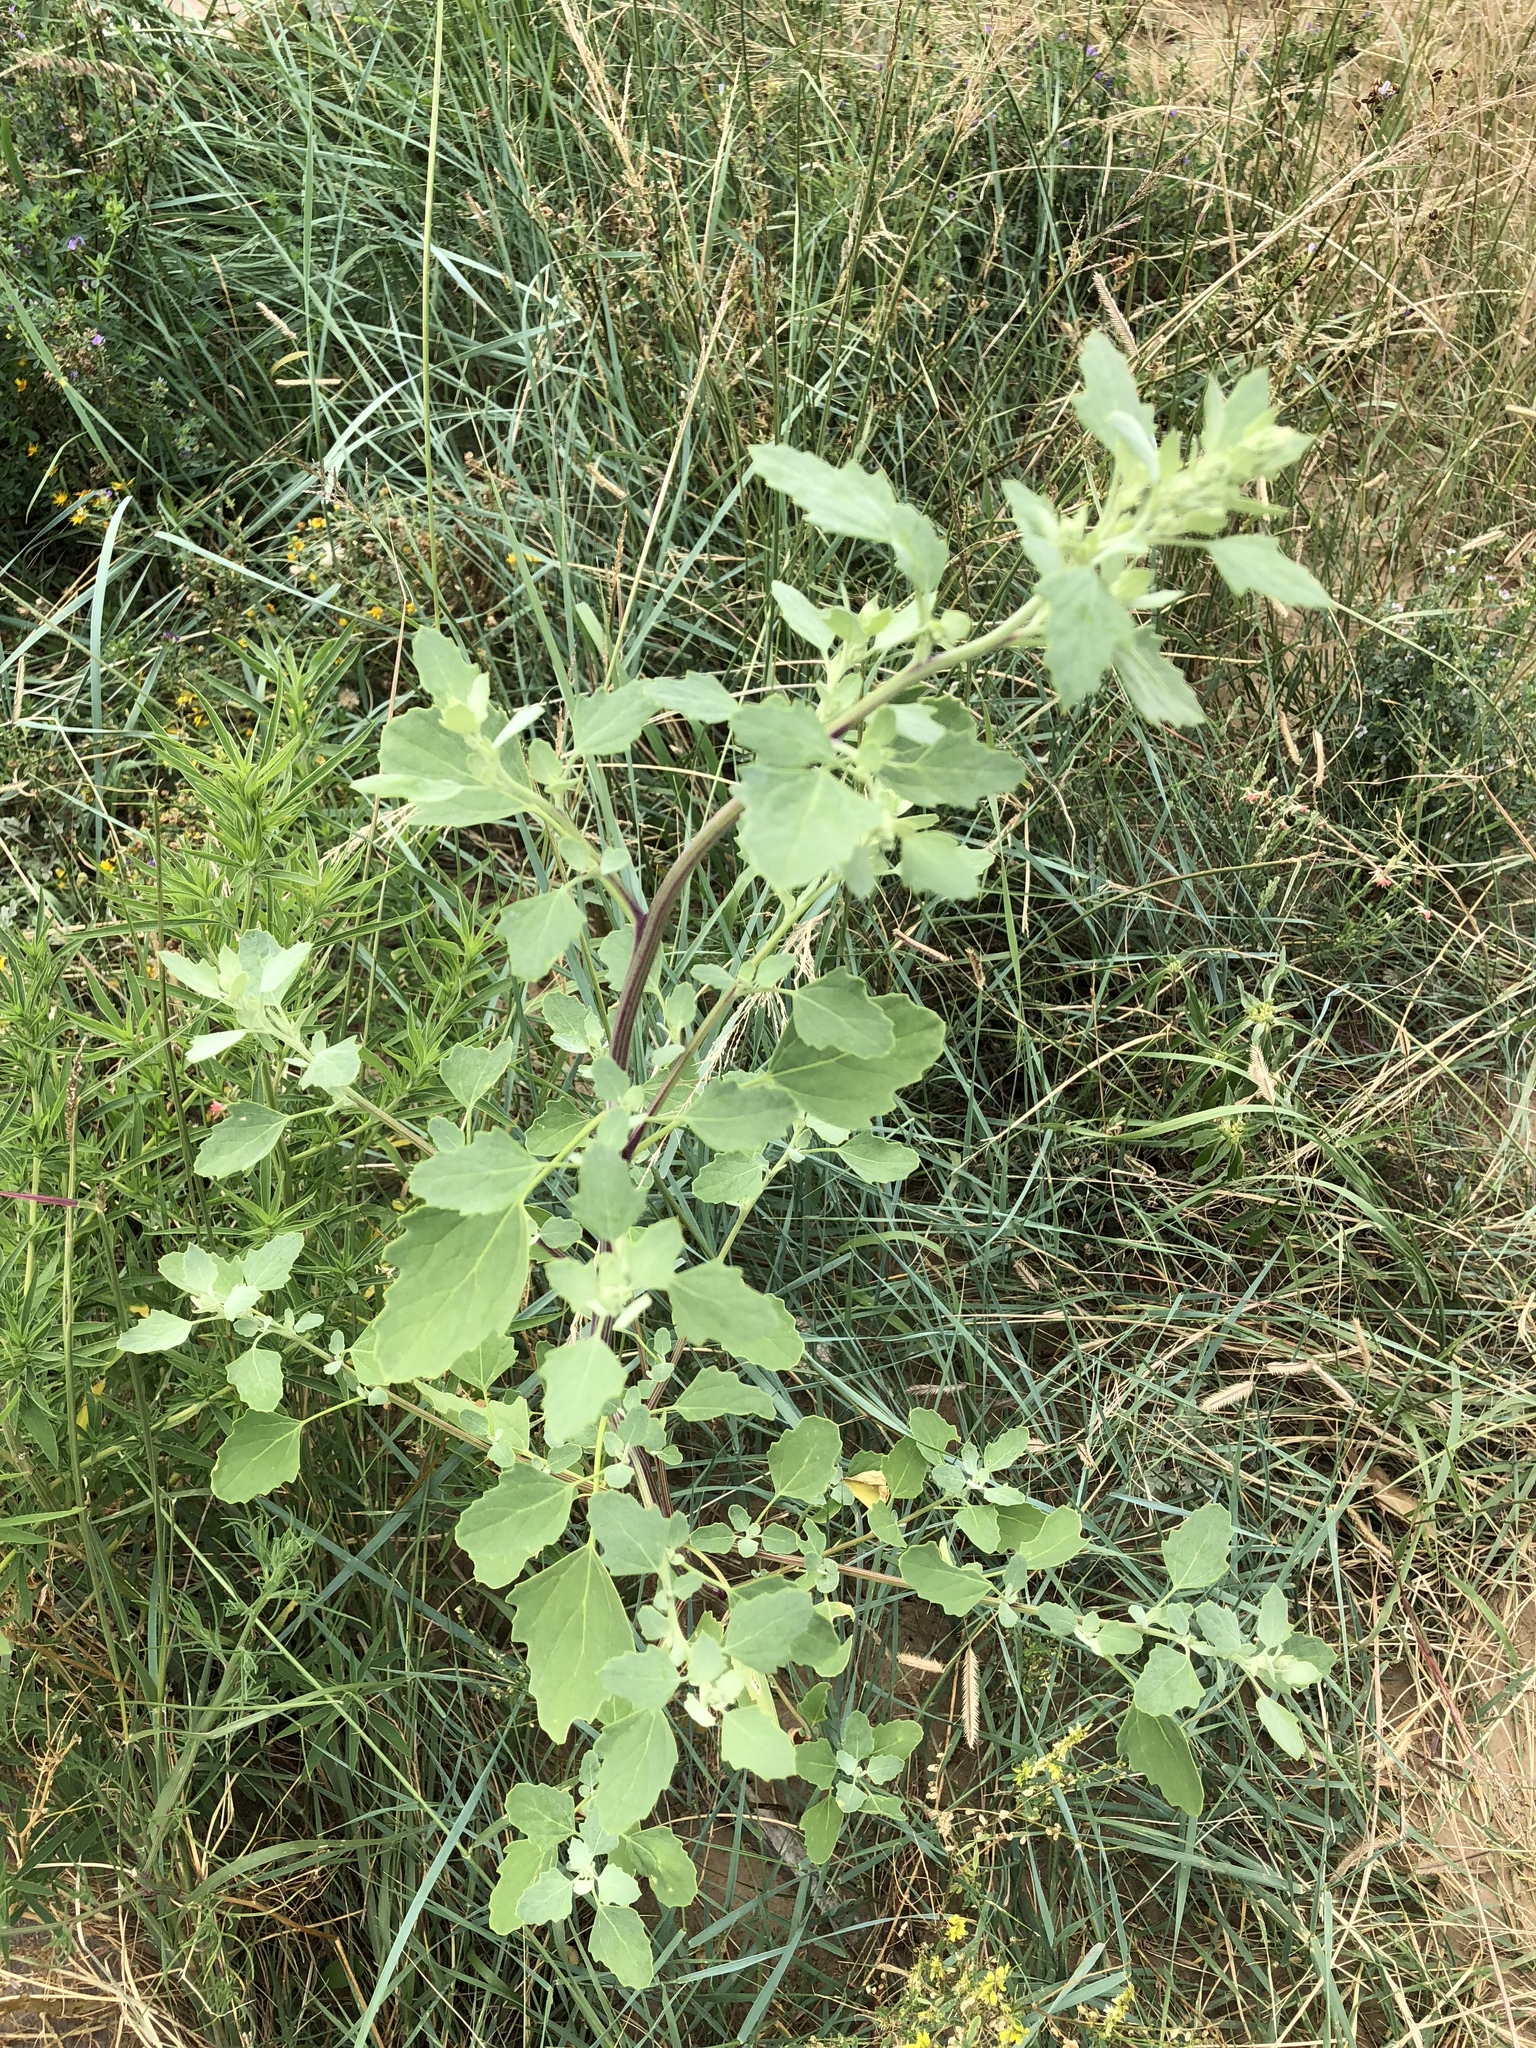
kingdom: Plantae
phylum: Tracheophyta
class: Magnoliopsida
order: Caryophyllales
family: Amaranthaceae
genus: Chenopodium
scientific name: Chenopodium album
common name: Fat-hen
